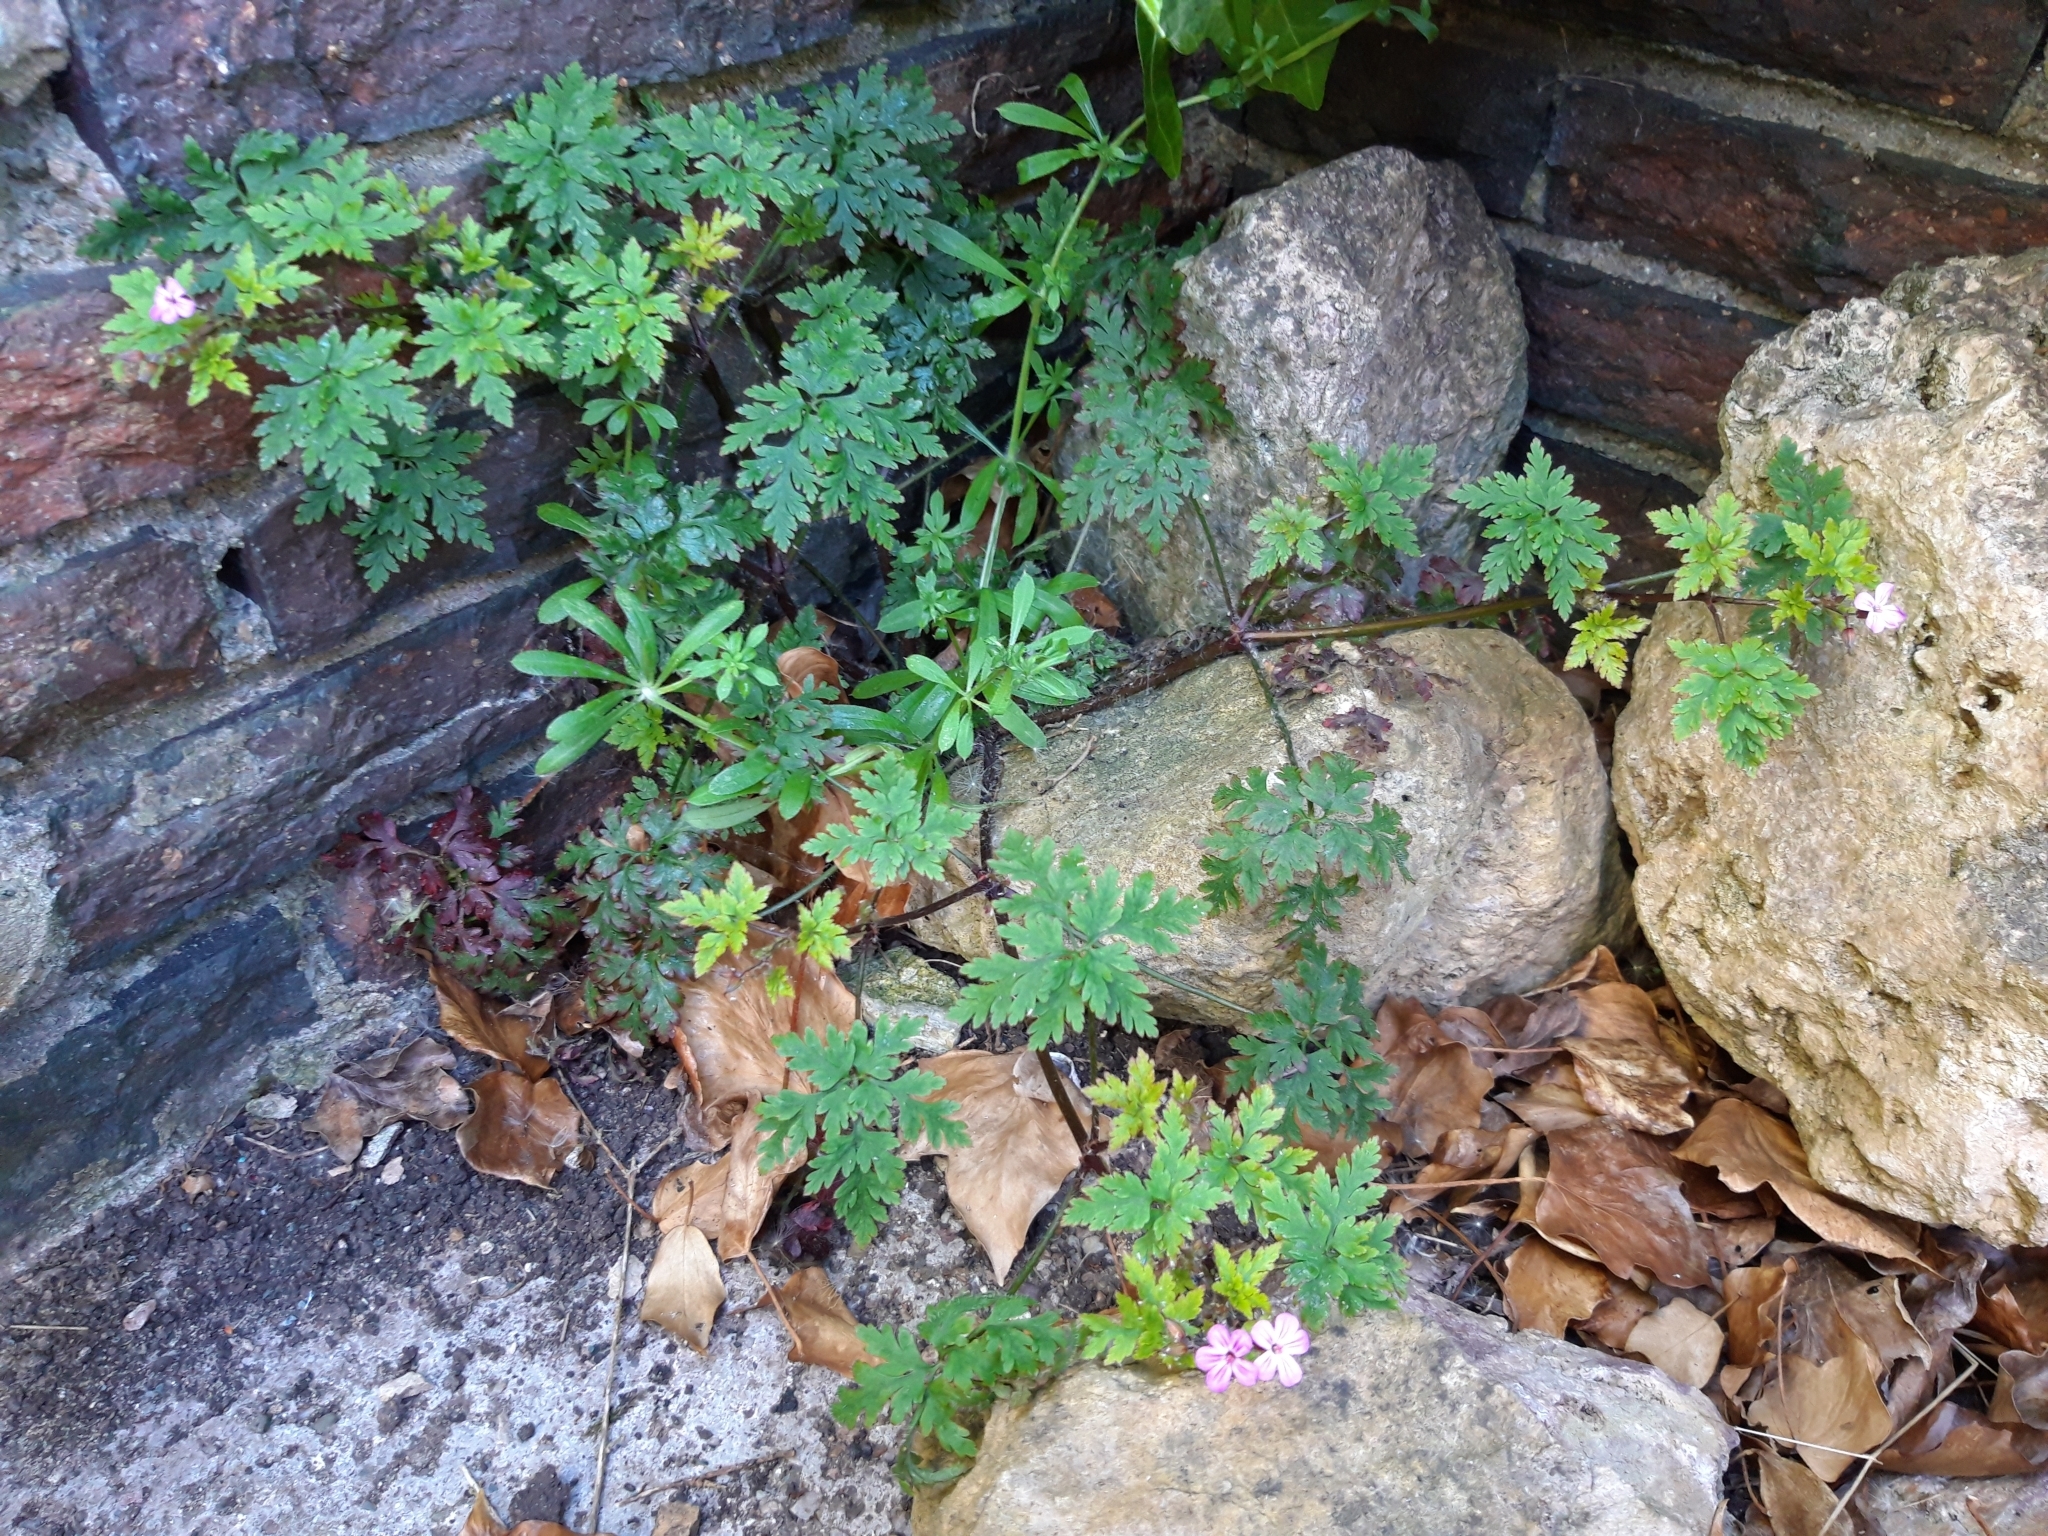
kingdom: Plantae
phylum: Tracheophyta
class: Magnoliopsida
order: Geraniales
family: Geraniaceae
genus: Geranium
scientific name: Geranium robertianum
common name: Herb-robert
